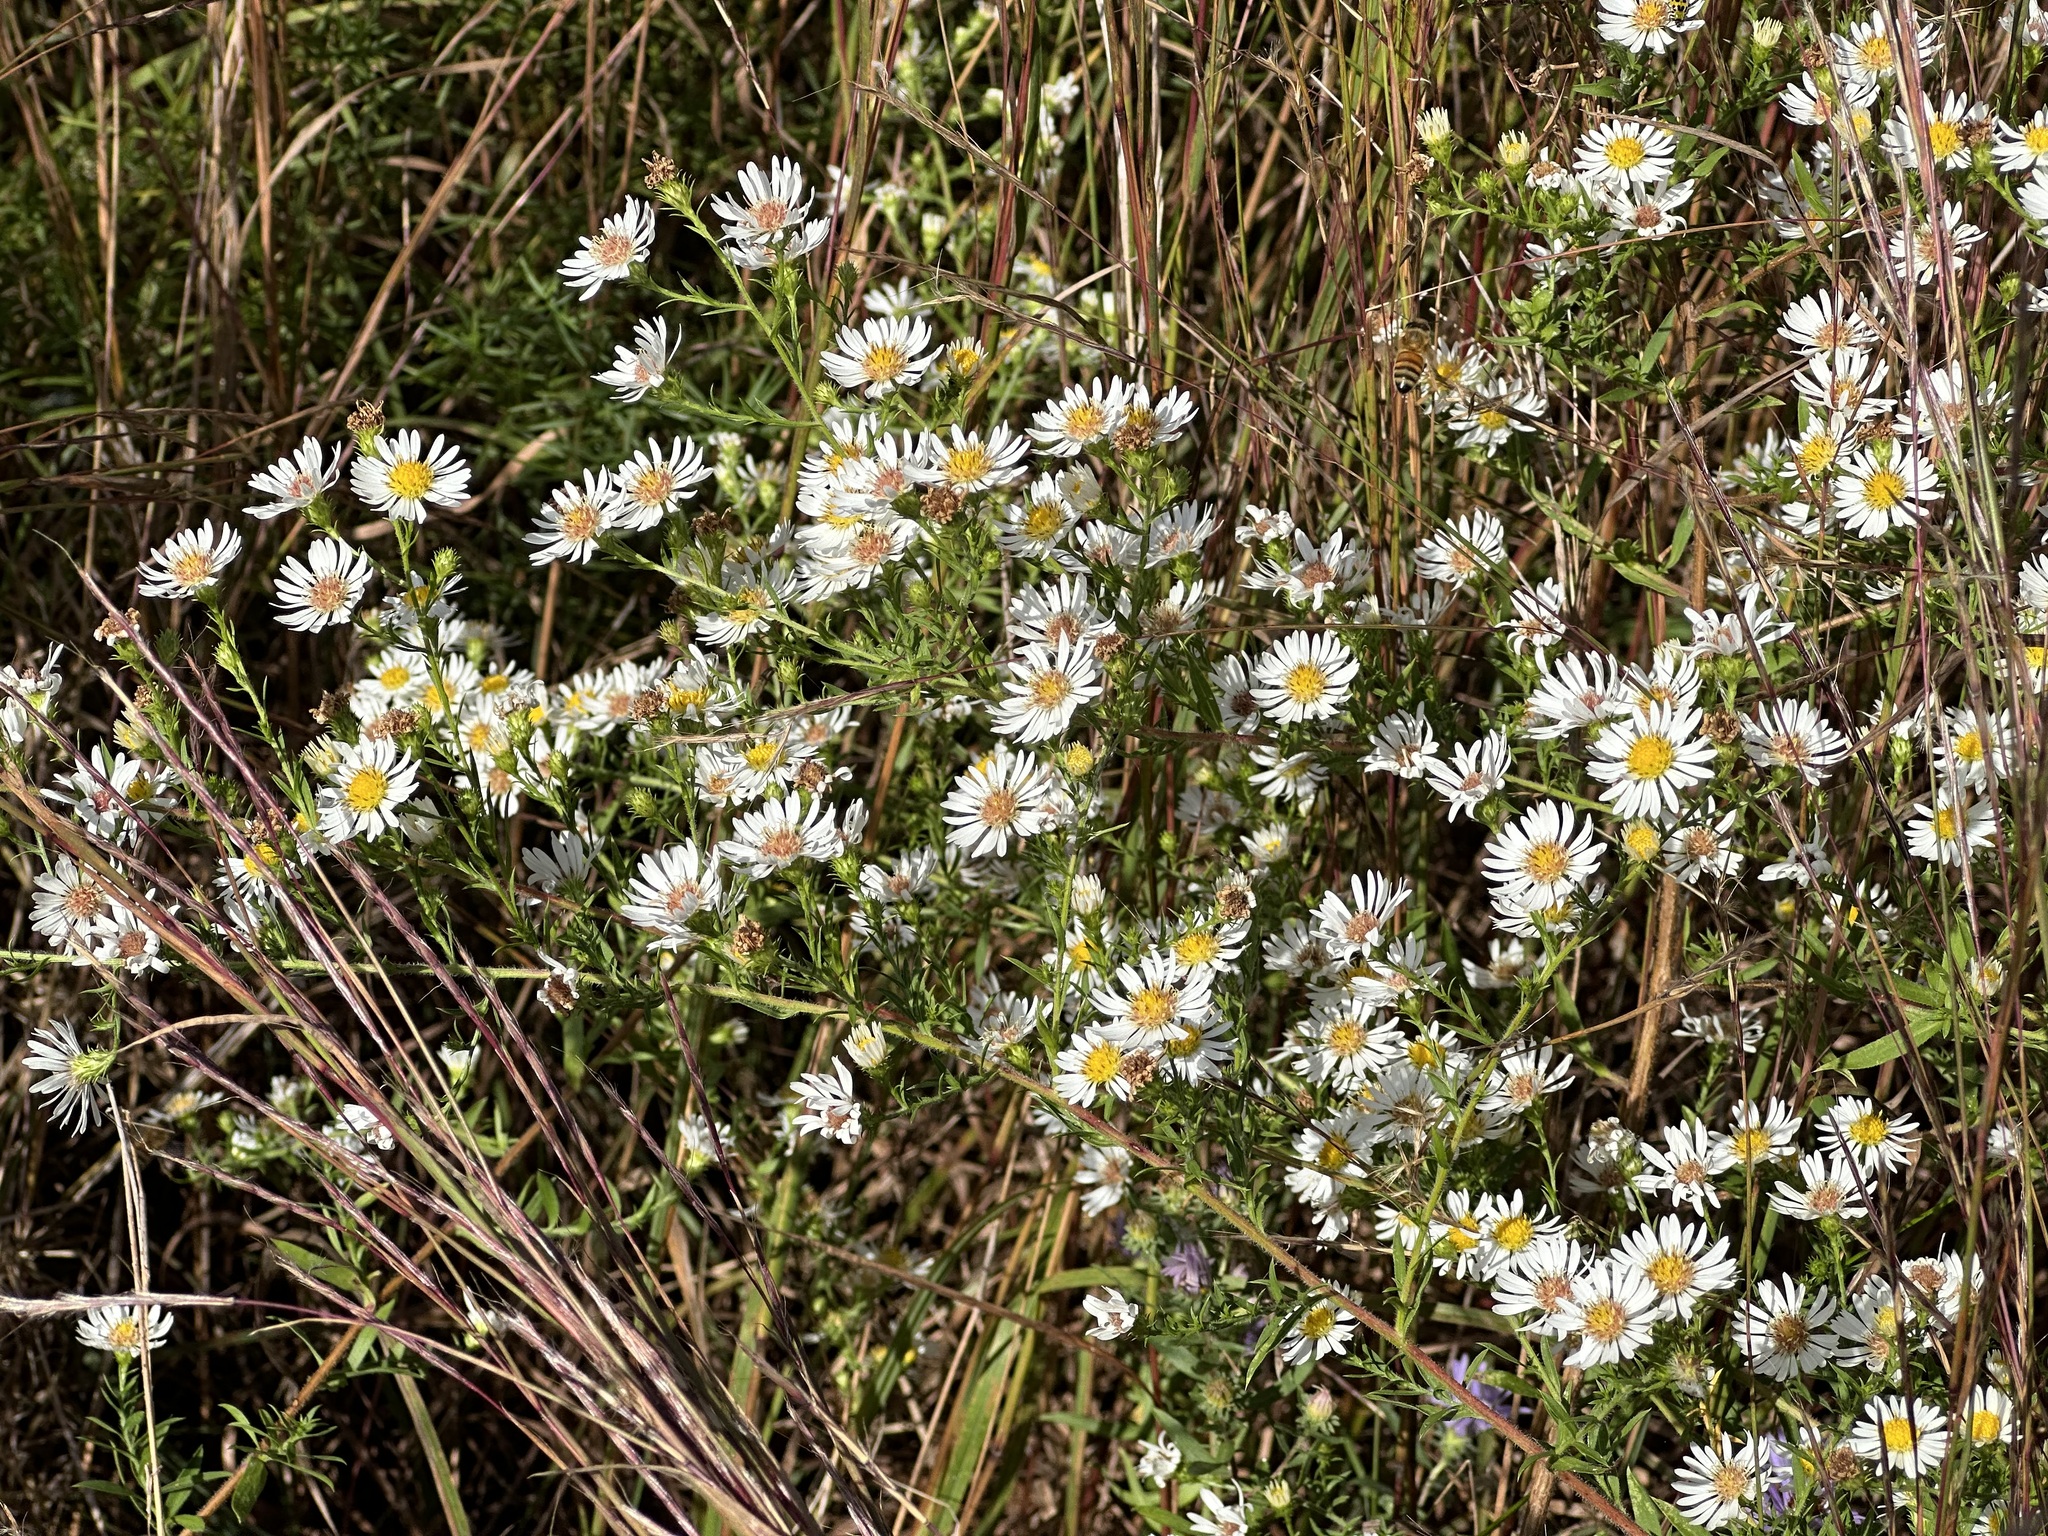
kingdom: Plantae
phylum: Tracheophyta
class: Magnoliopsida
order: Asterales
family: Asteraceae
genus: Symphyotrichum
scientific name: Symphyotrichum pilosum
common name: Awl aster
